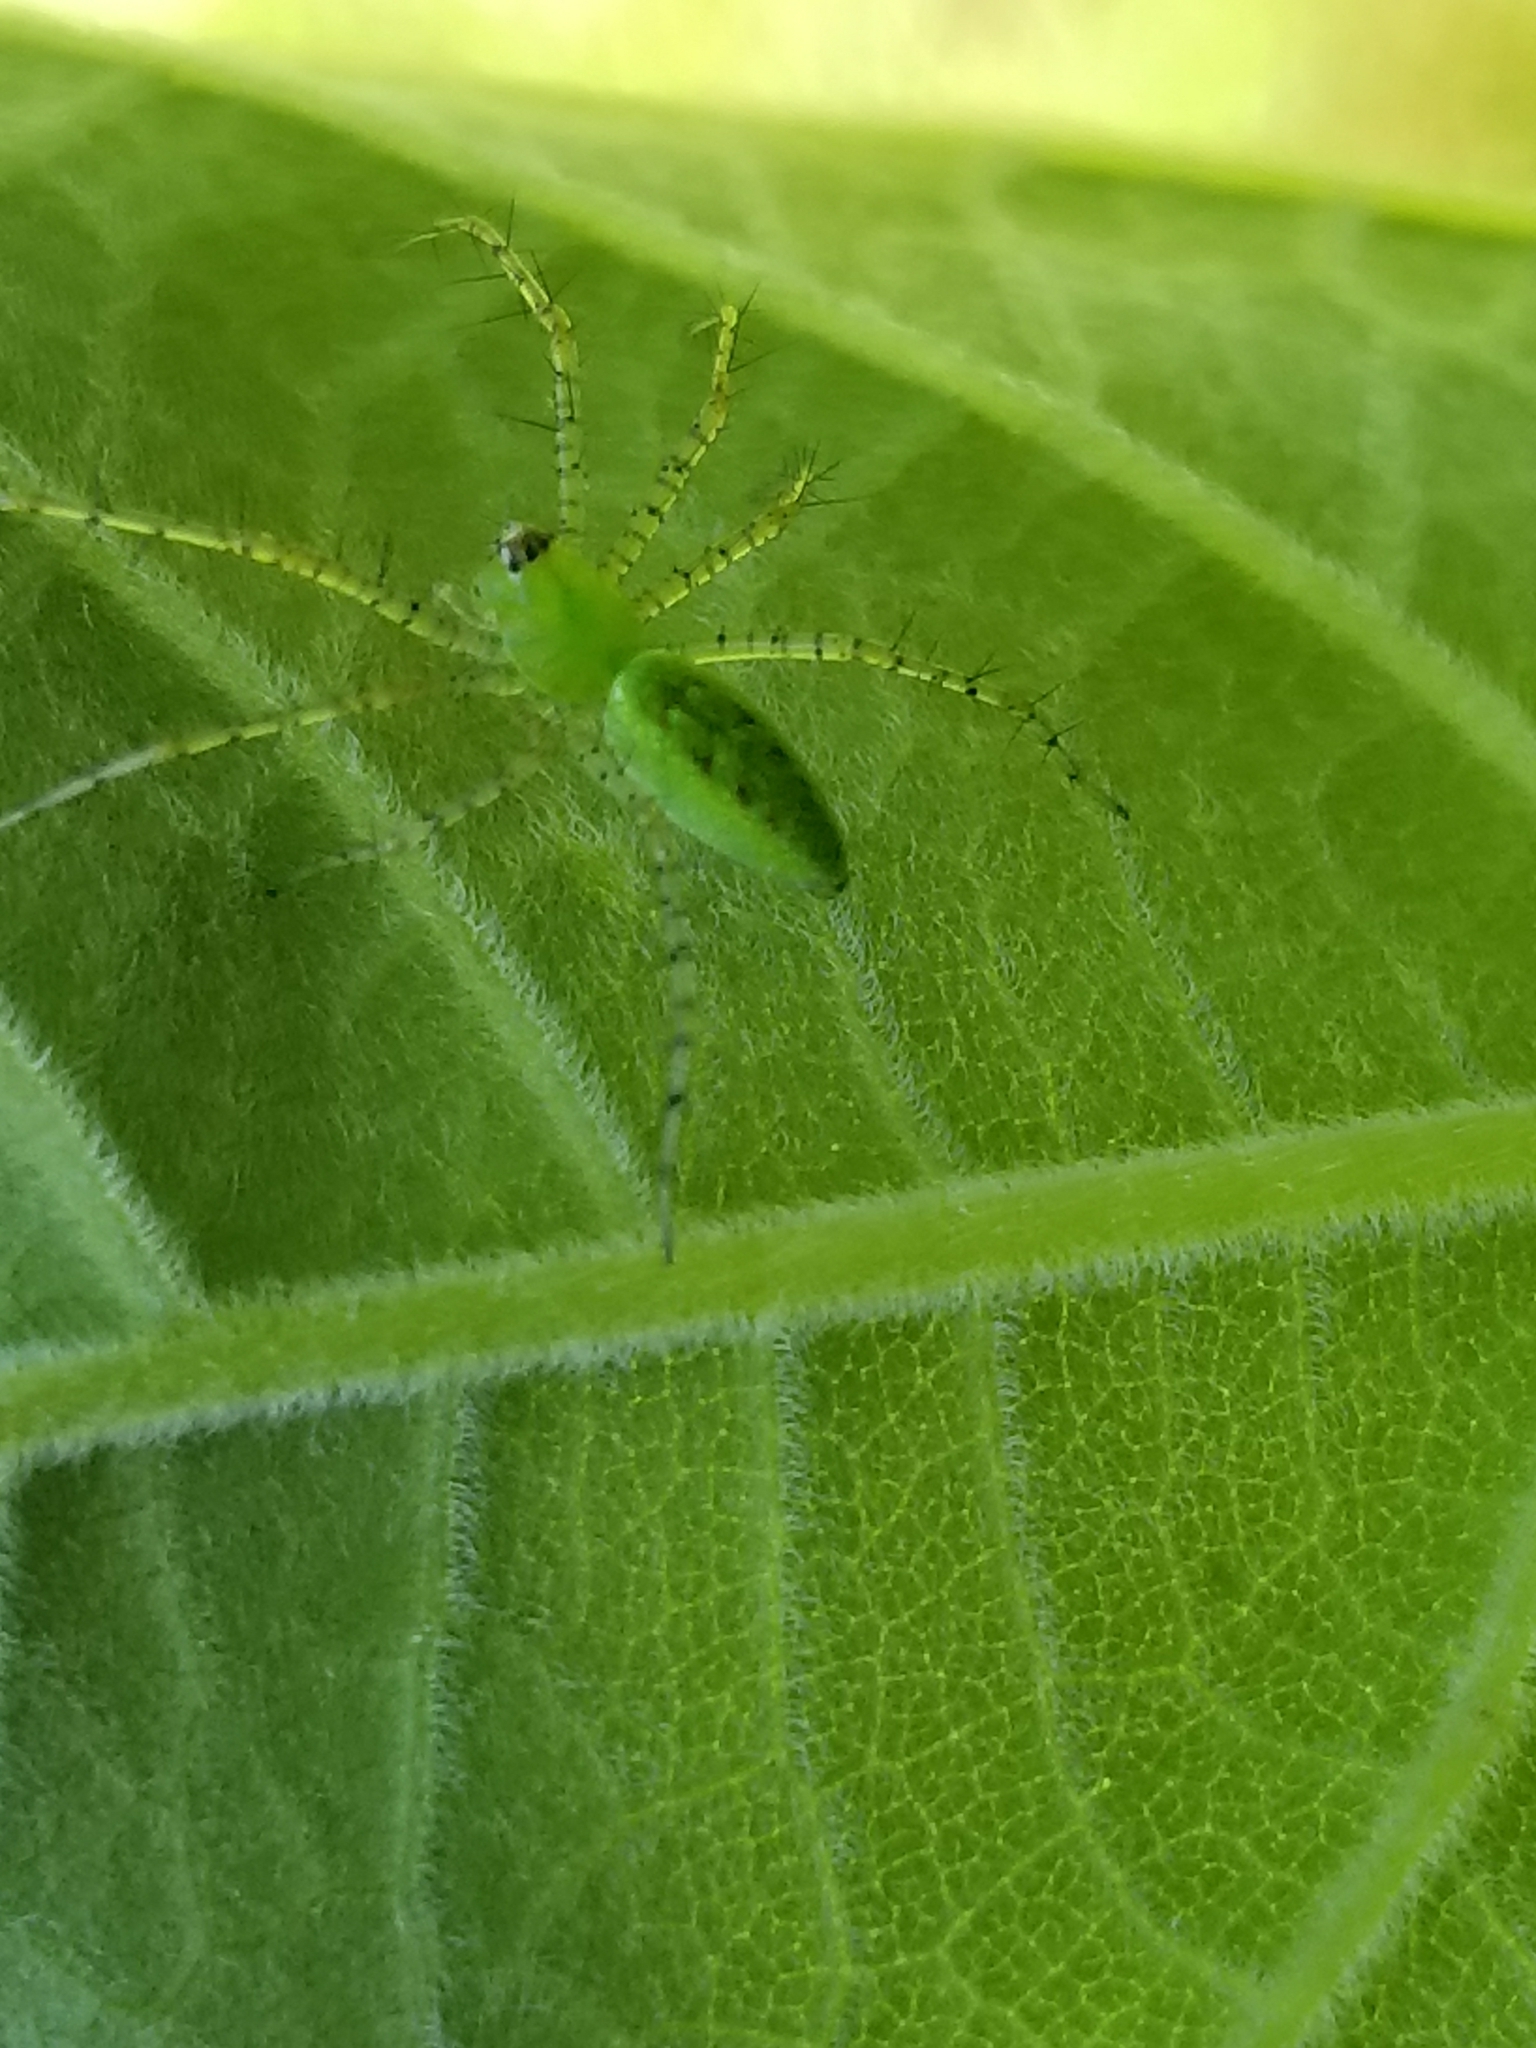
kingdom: Animalia
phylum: Arthropoda
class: Arachnida
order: Araneae
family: Oxyopidae
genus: Peucetia
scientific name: Peucetia viridans
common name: Lynx spiders
